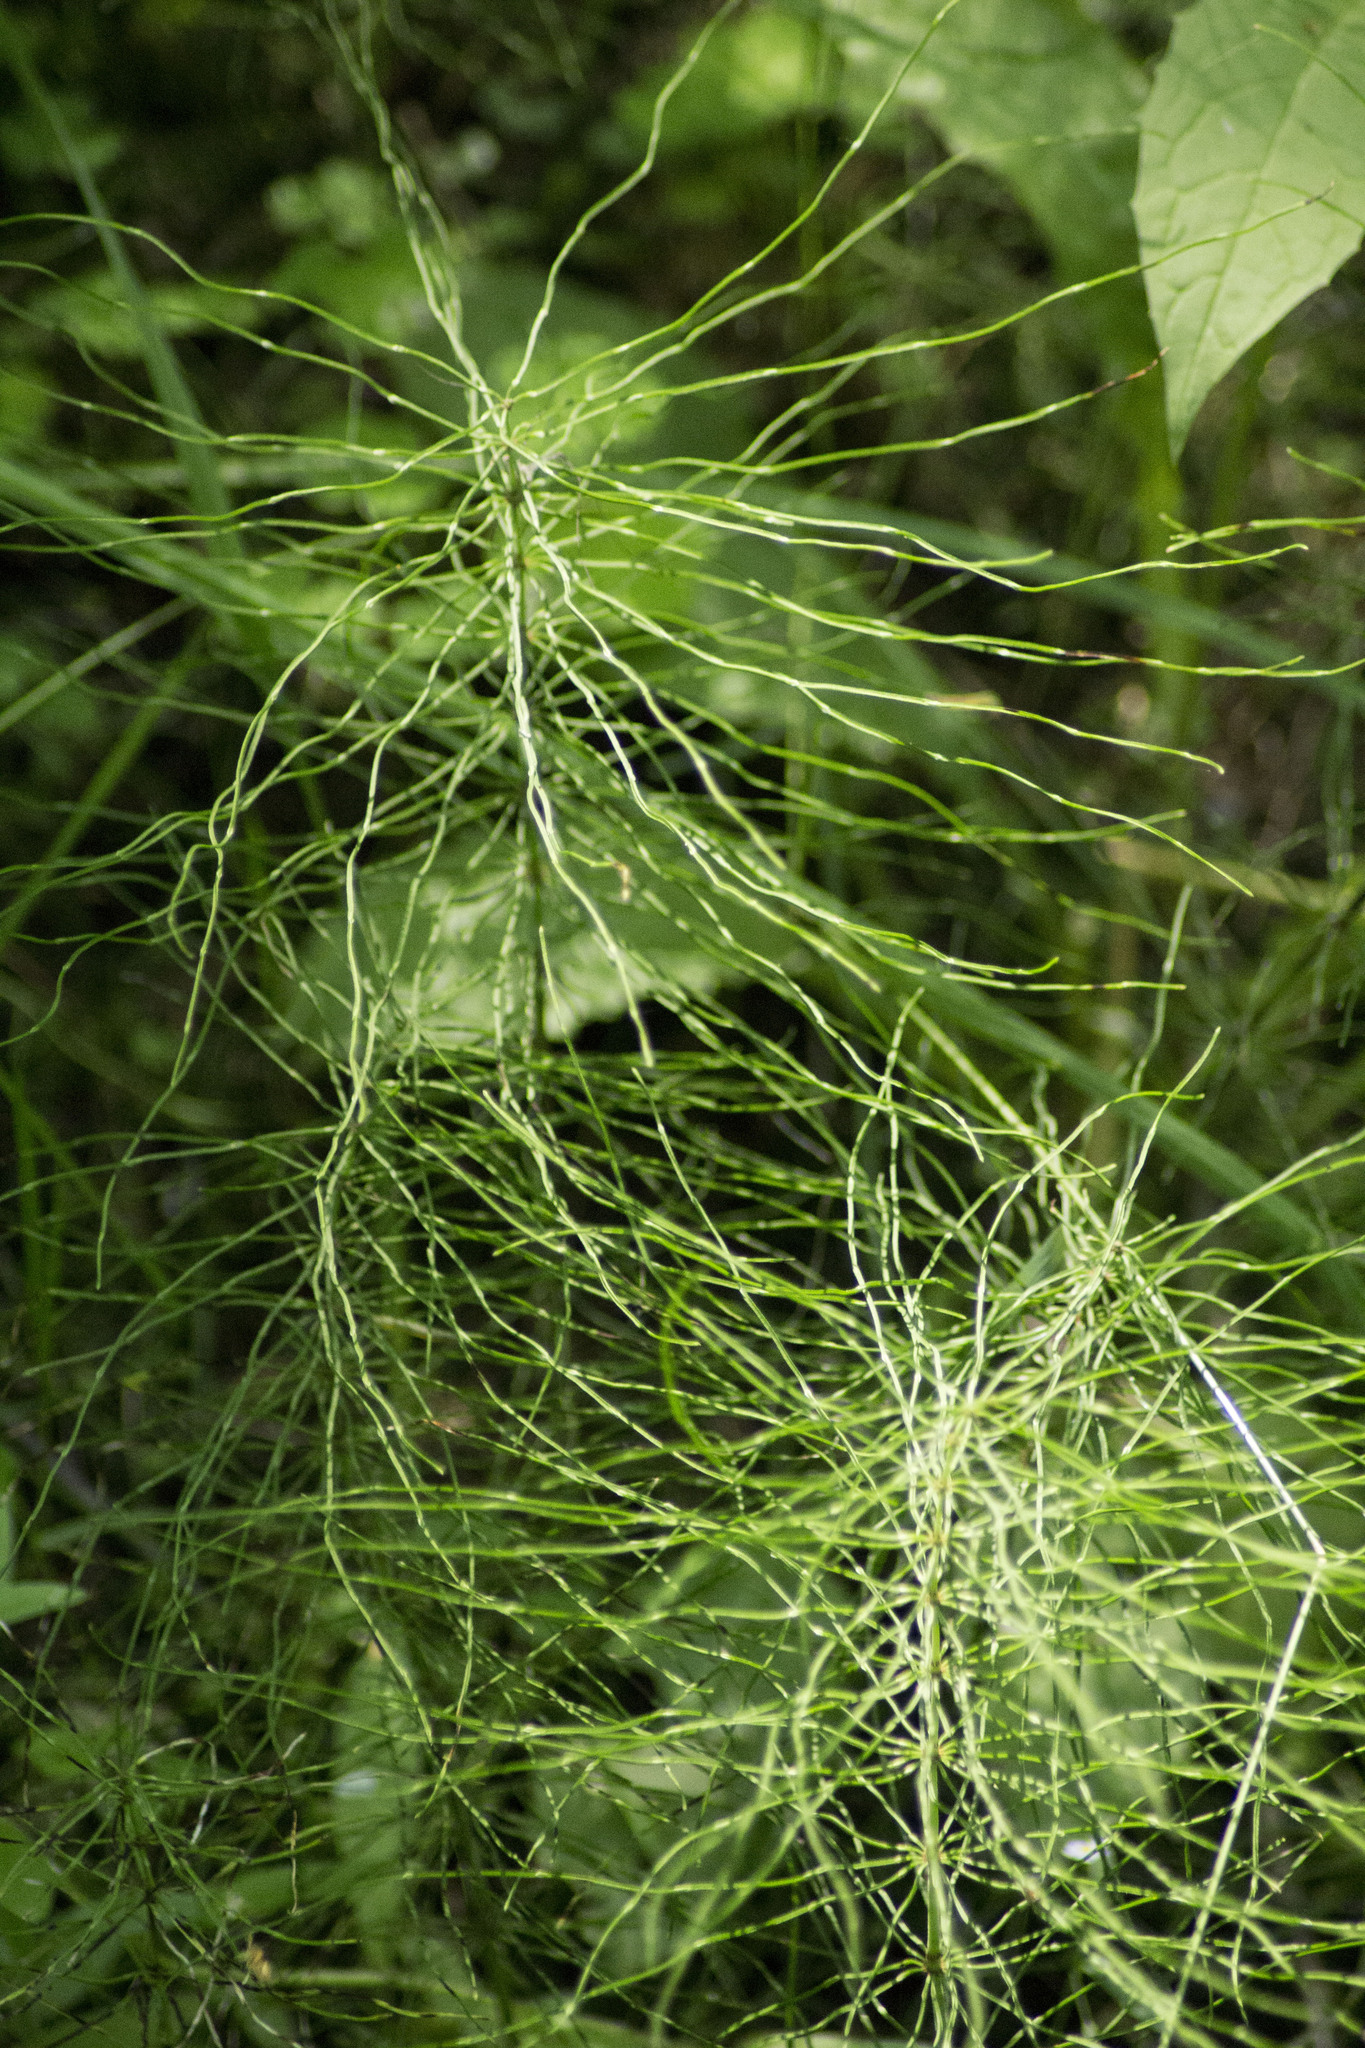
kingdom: Plantae
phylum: Tracheophyta
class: Polypodiopsida
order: Equisetales
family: Equisetaceae
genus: Equisetum
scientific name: Equisetum pratense
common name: Meadow horsetail
